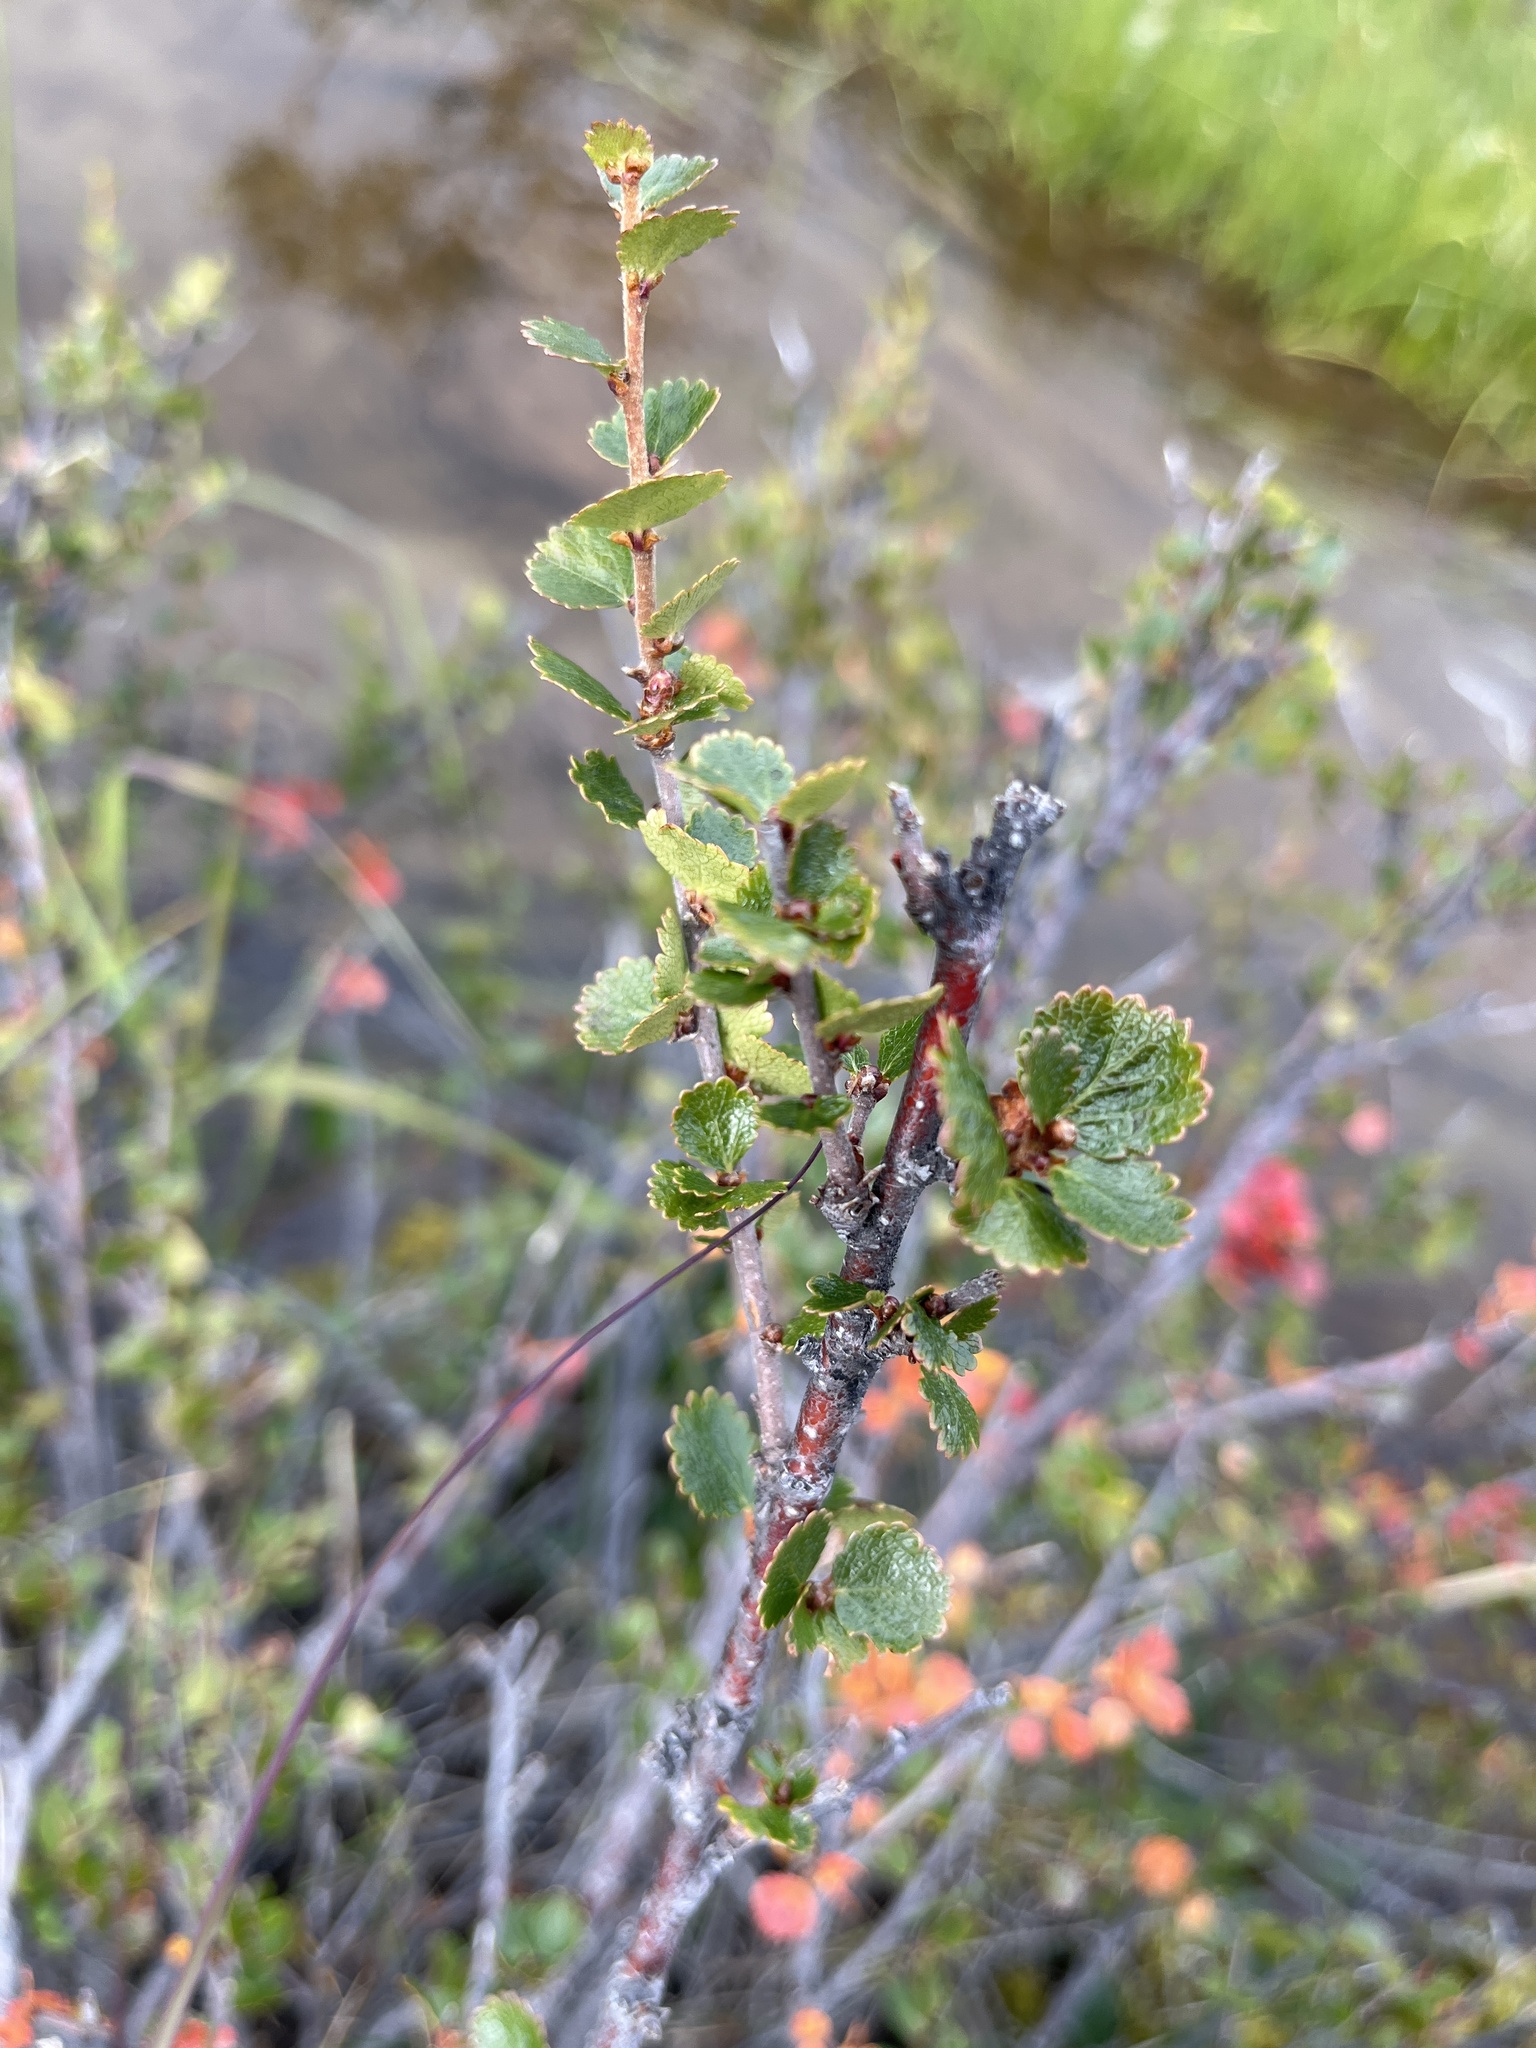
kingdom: Plantae
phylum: Tracheophyta
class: Magnoliopsida
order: Fagales
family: Betulaceae
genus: Betula
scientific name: Betula nana
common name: Arctic dwarf birch
